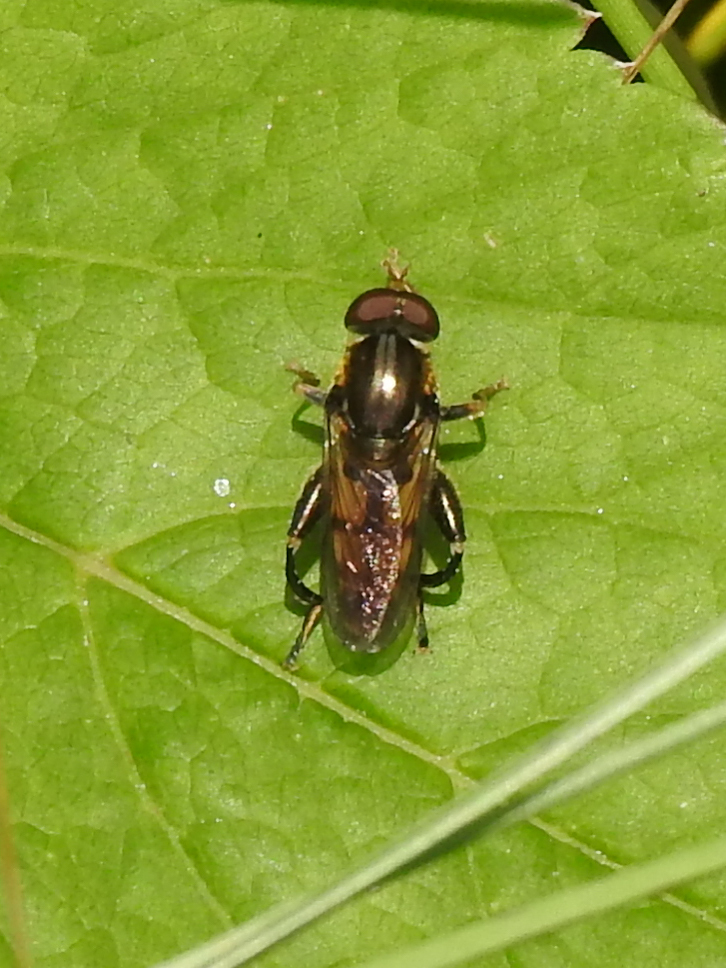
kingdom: Animalia
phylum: Arthropoda
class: Insecta
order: Diptera
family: Syrphidae
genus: Tropidia
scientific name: Tropidia quadrata
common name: Common thick-legged fly
